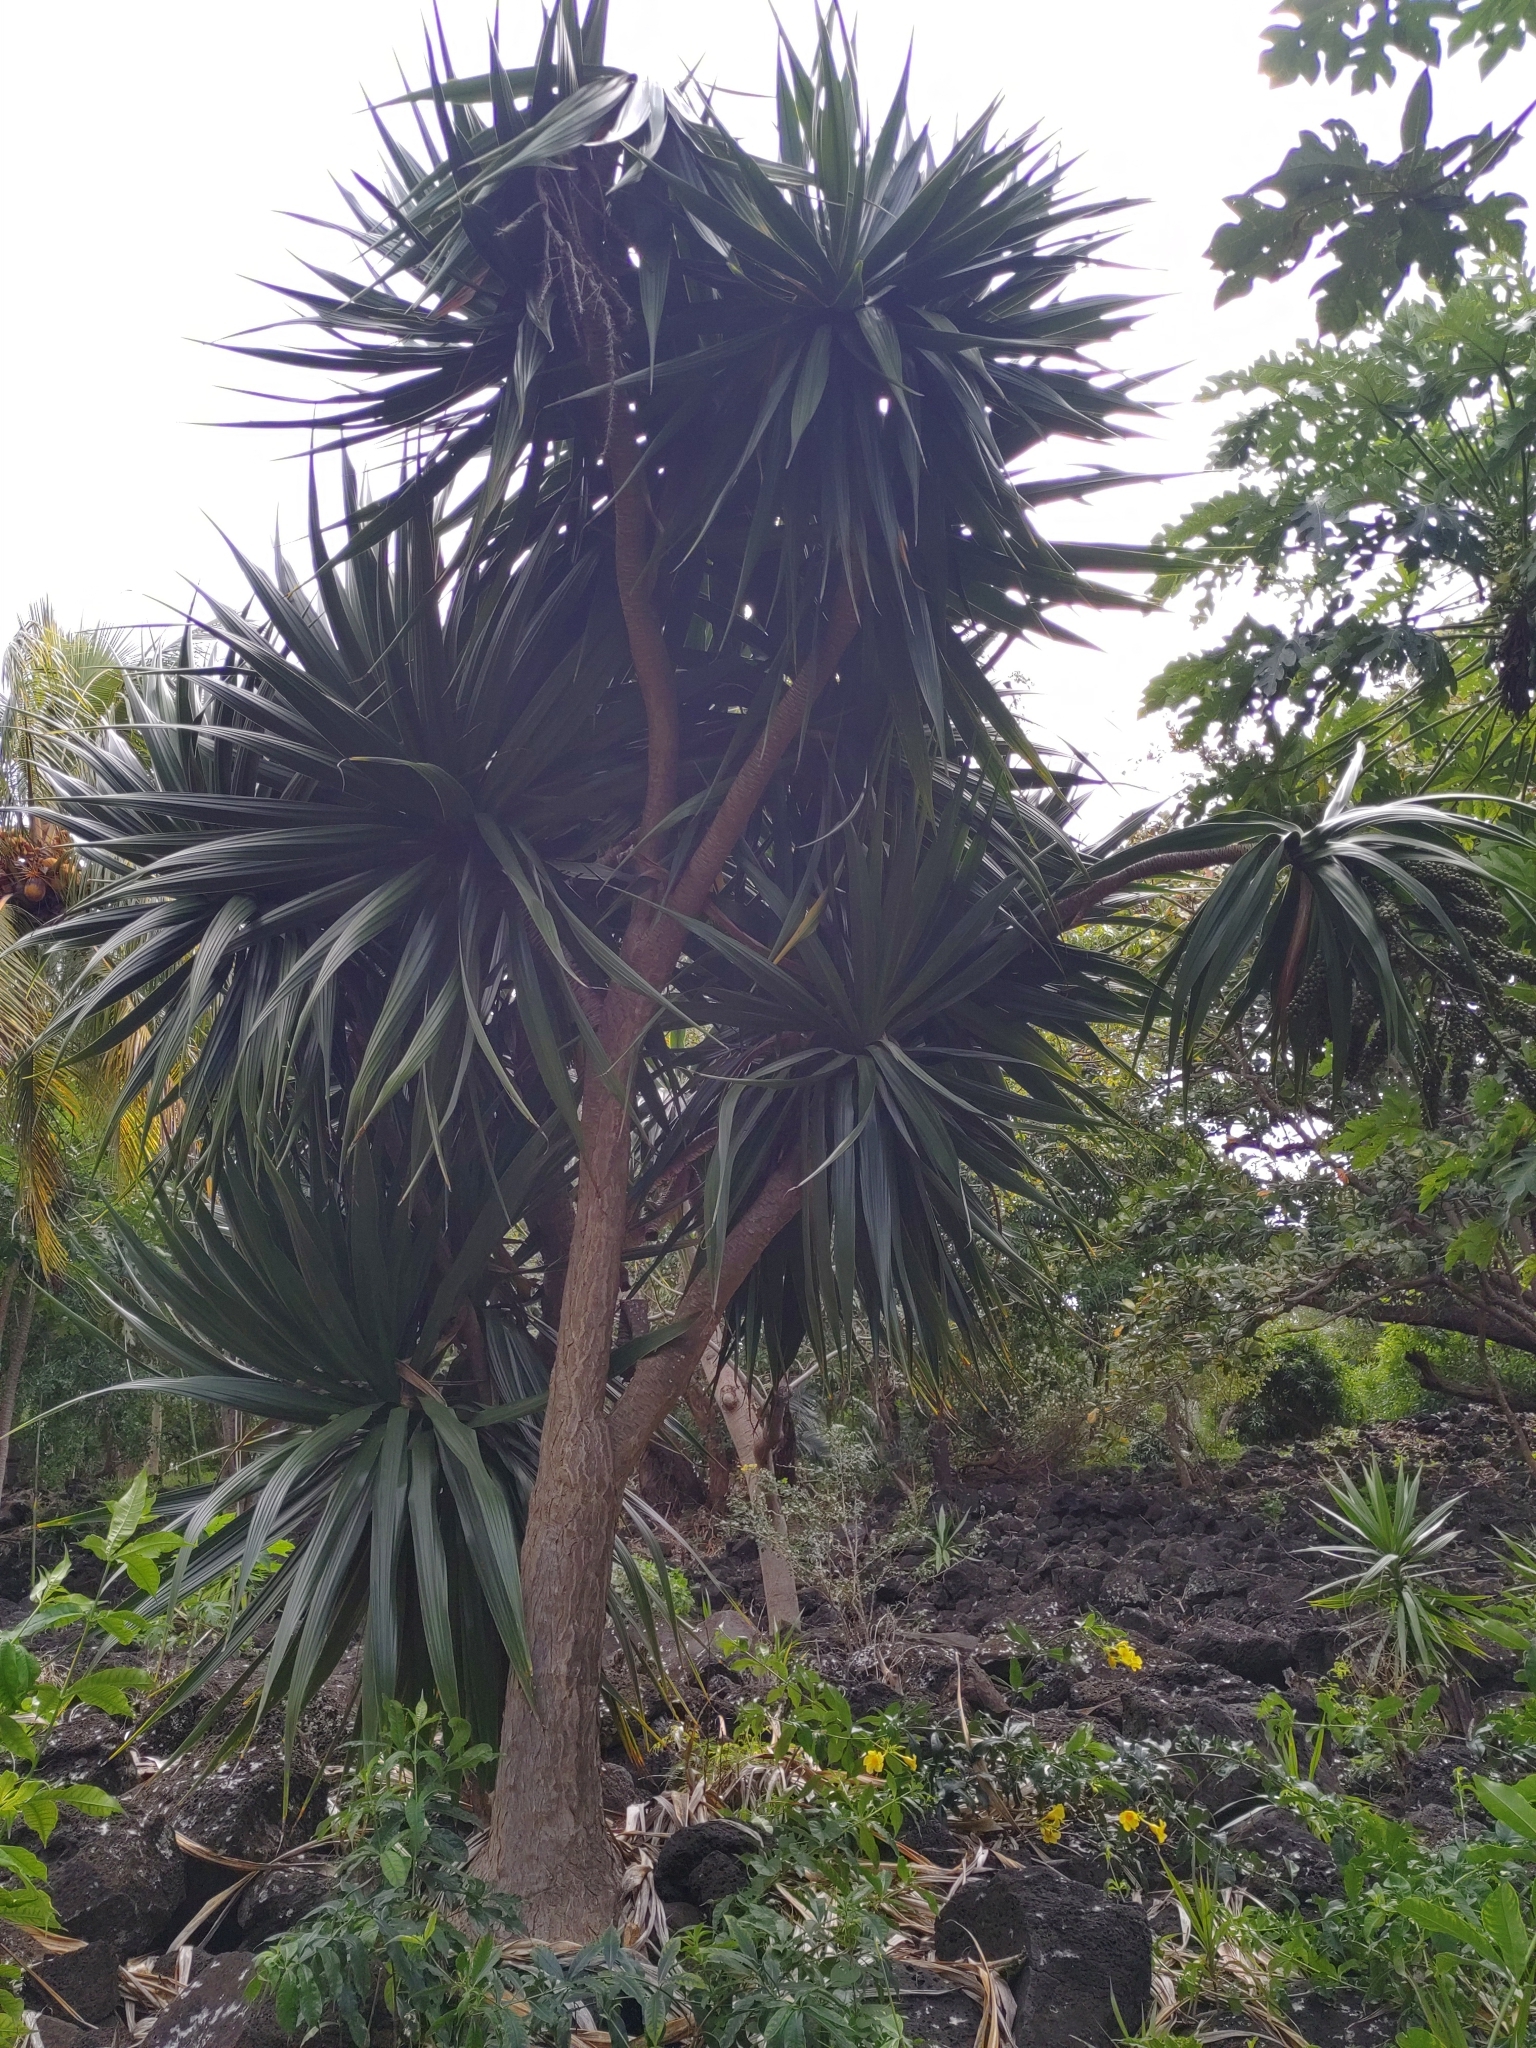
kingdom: Plantae
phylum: Tracheophyta
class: Liliopsida
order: Asparagales
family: Asparagaceae
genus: Dracaena
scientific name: Dracaena concinna
